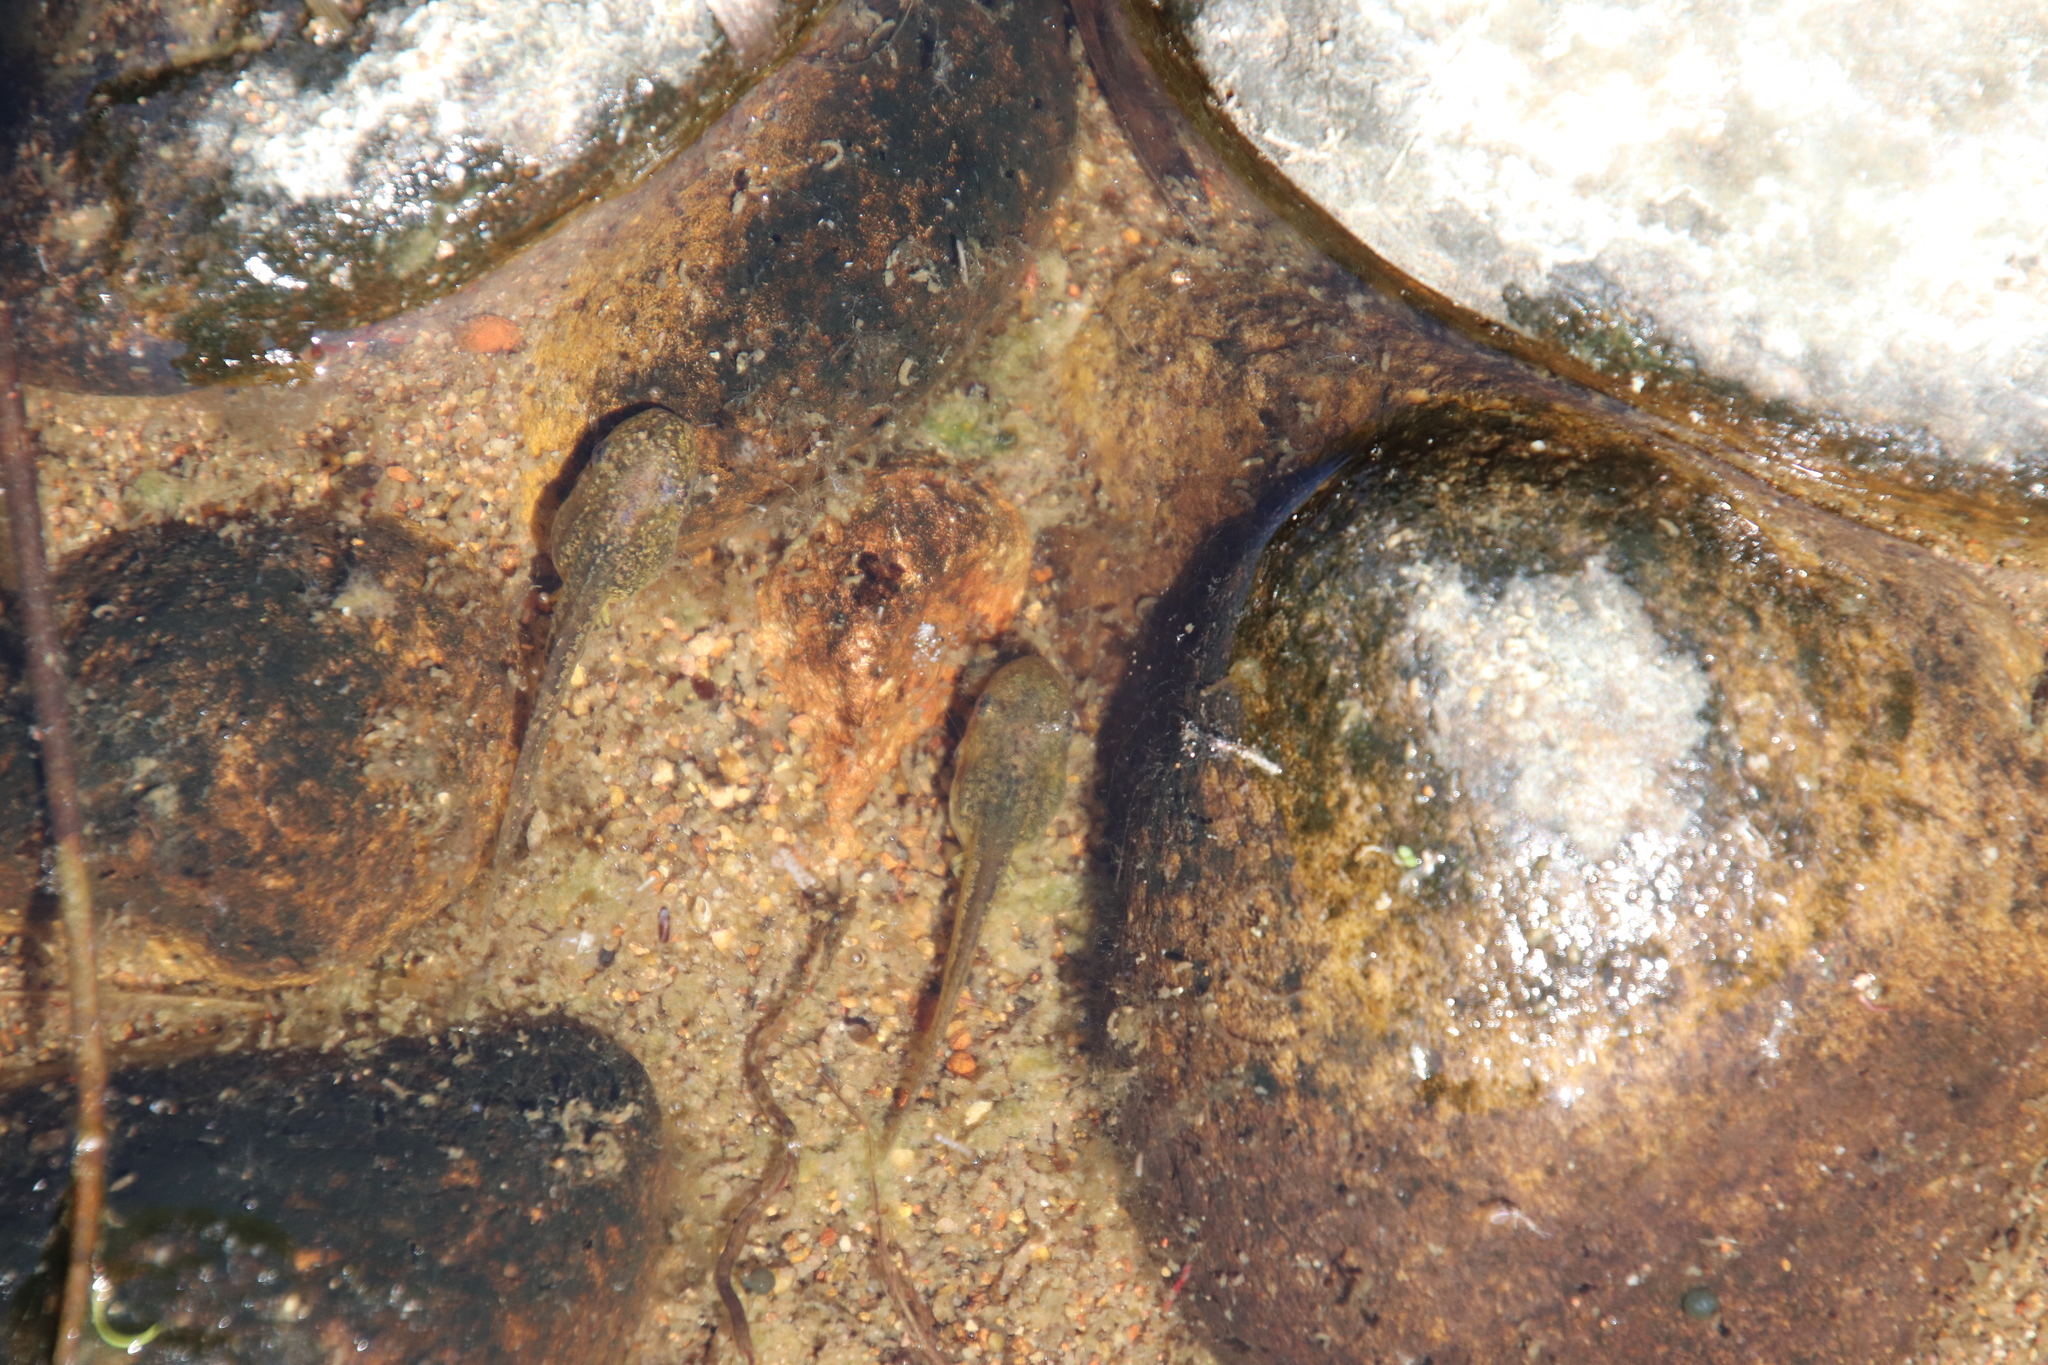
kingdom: Animalia
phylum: Chordata
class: Amphibia
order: Anura
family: Hylidae
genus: Pseudacris
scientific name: Pseudacris regilla
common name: Pacific chorus frog
